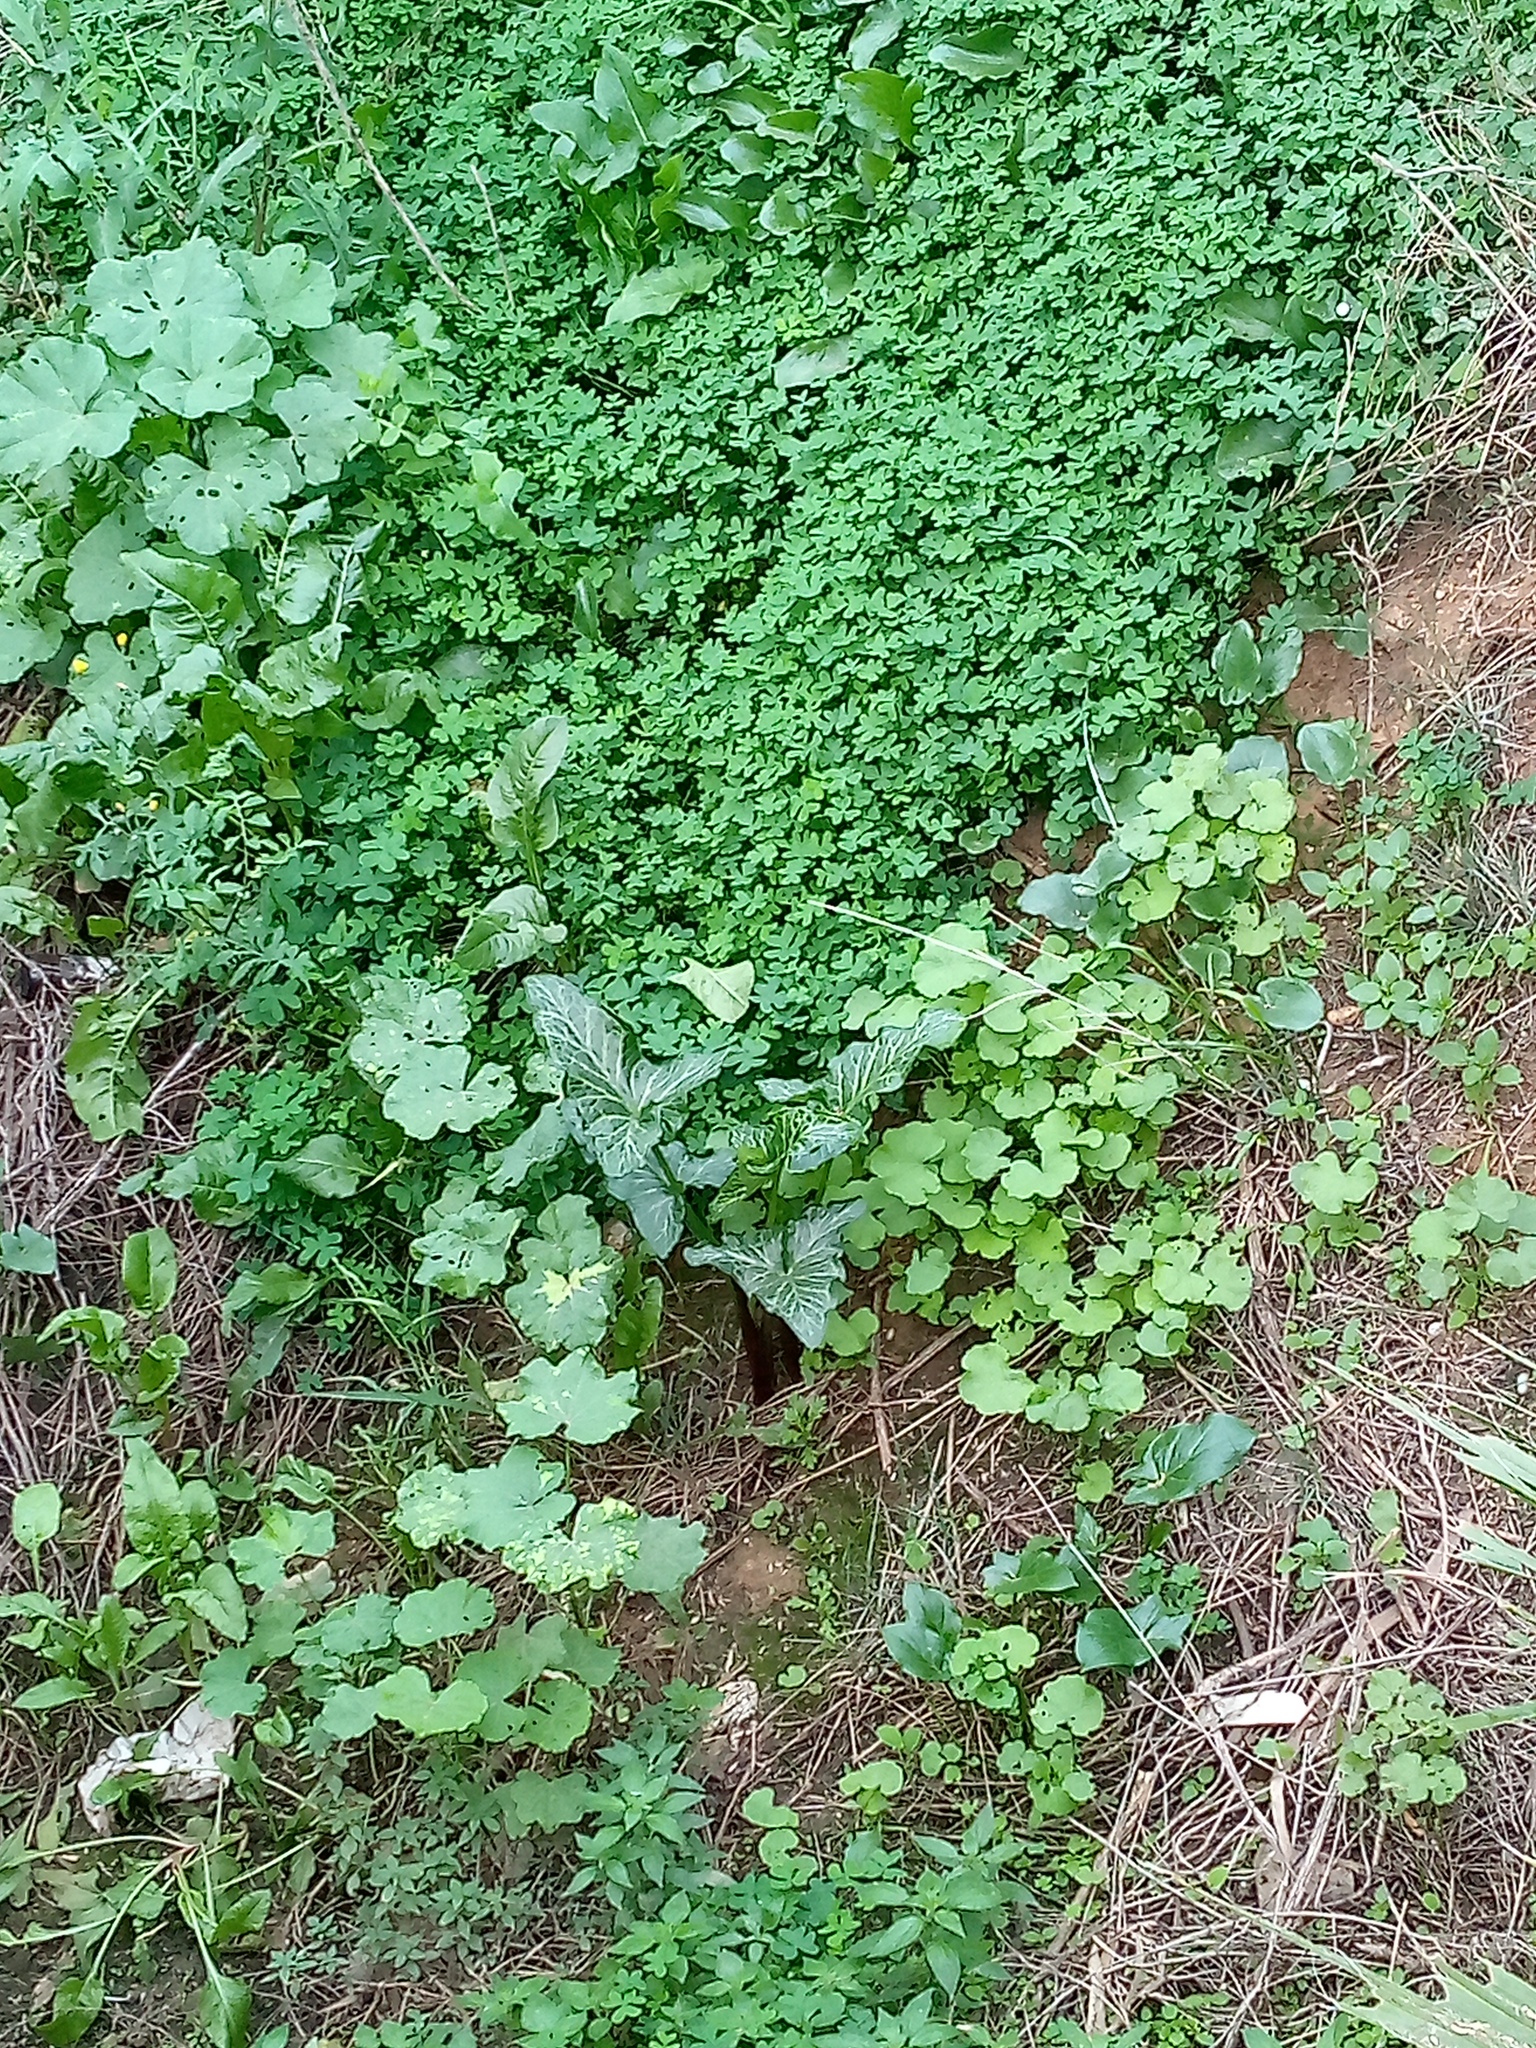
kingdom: Plantae
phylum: Tracheophyta
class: Liliopsida
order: Alismatales
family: Araceae
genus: Arum
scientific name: Arum italicum
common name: Italian lords-and-ladies
